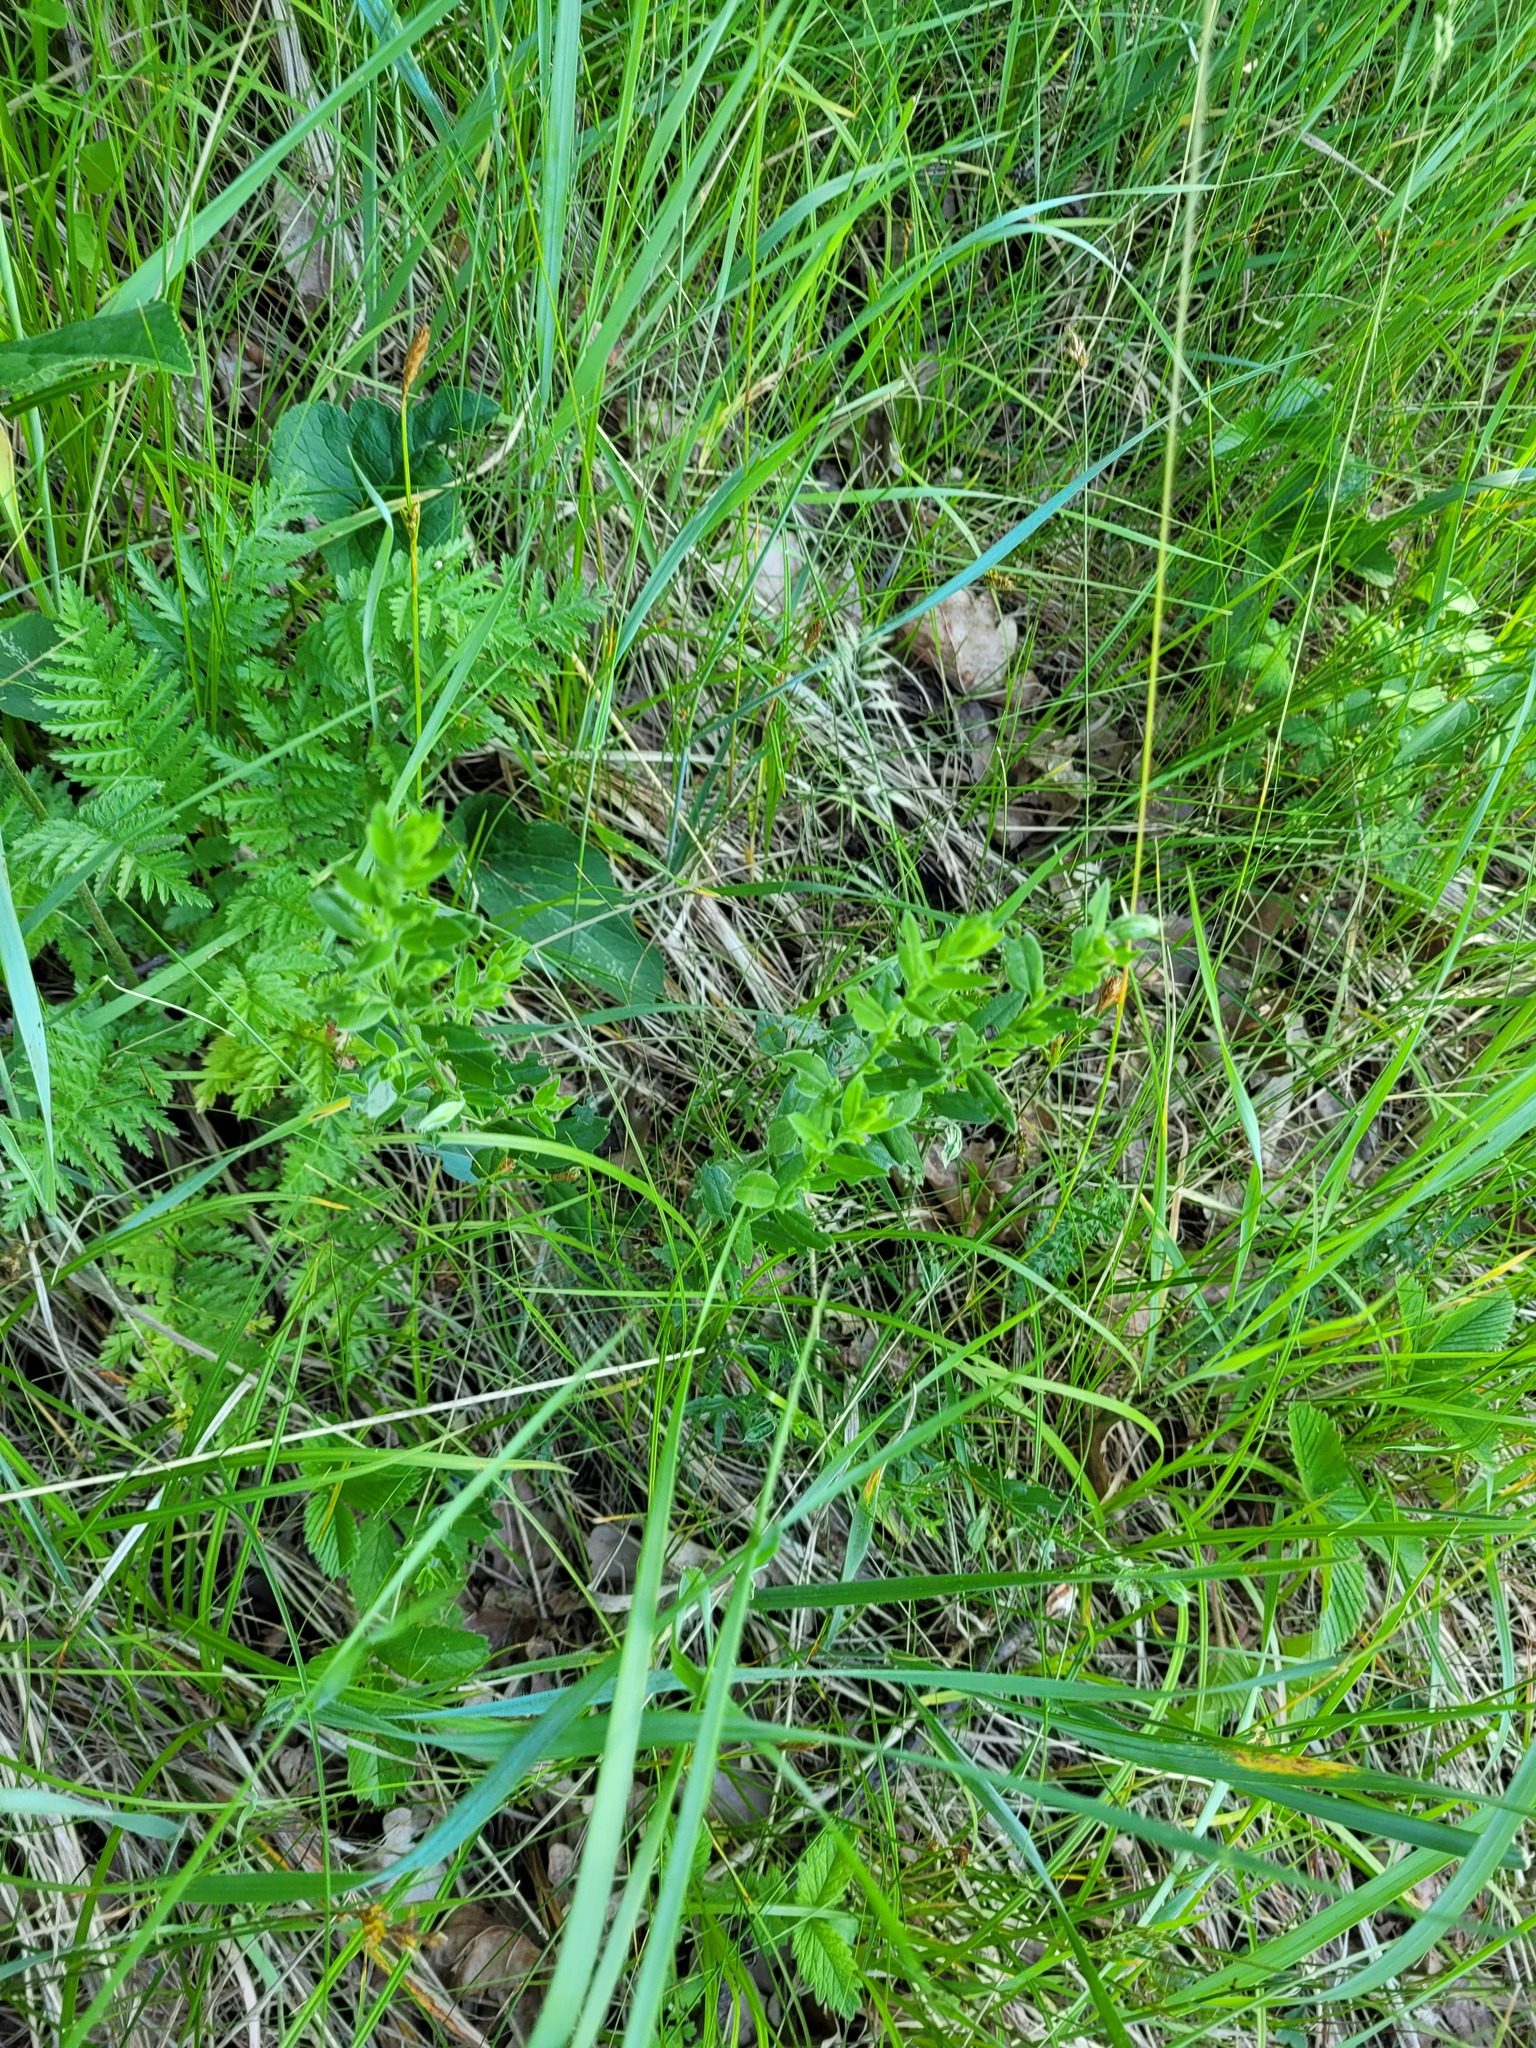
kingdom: Plantae
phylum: Tracheophyta
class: Magnoliopsida
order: Fabales
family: Fabaceae
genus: Genista
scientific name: Genista tinctoria
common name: Dyer's greenweed
